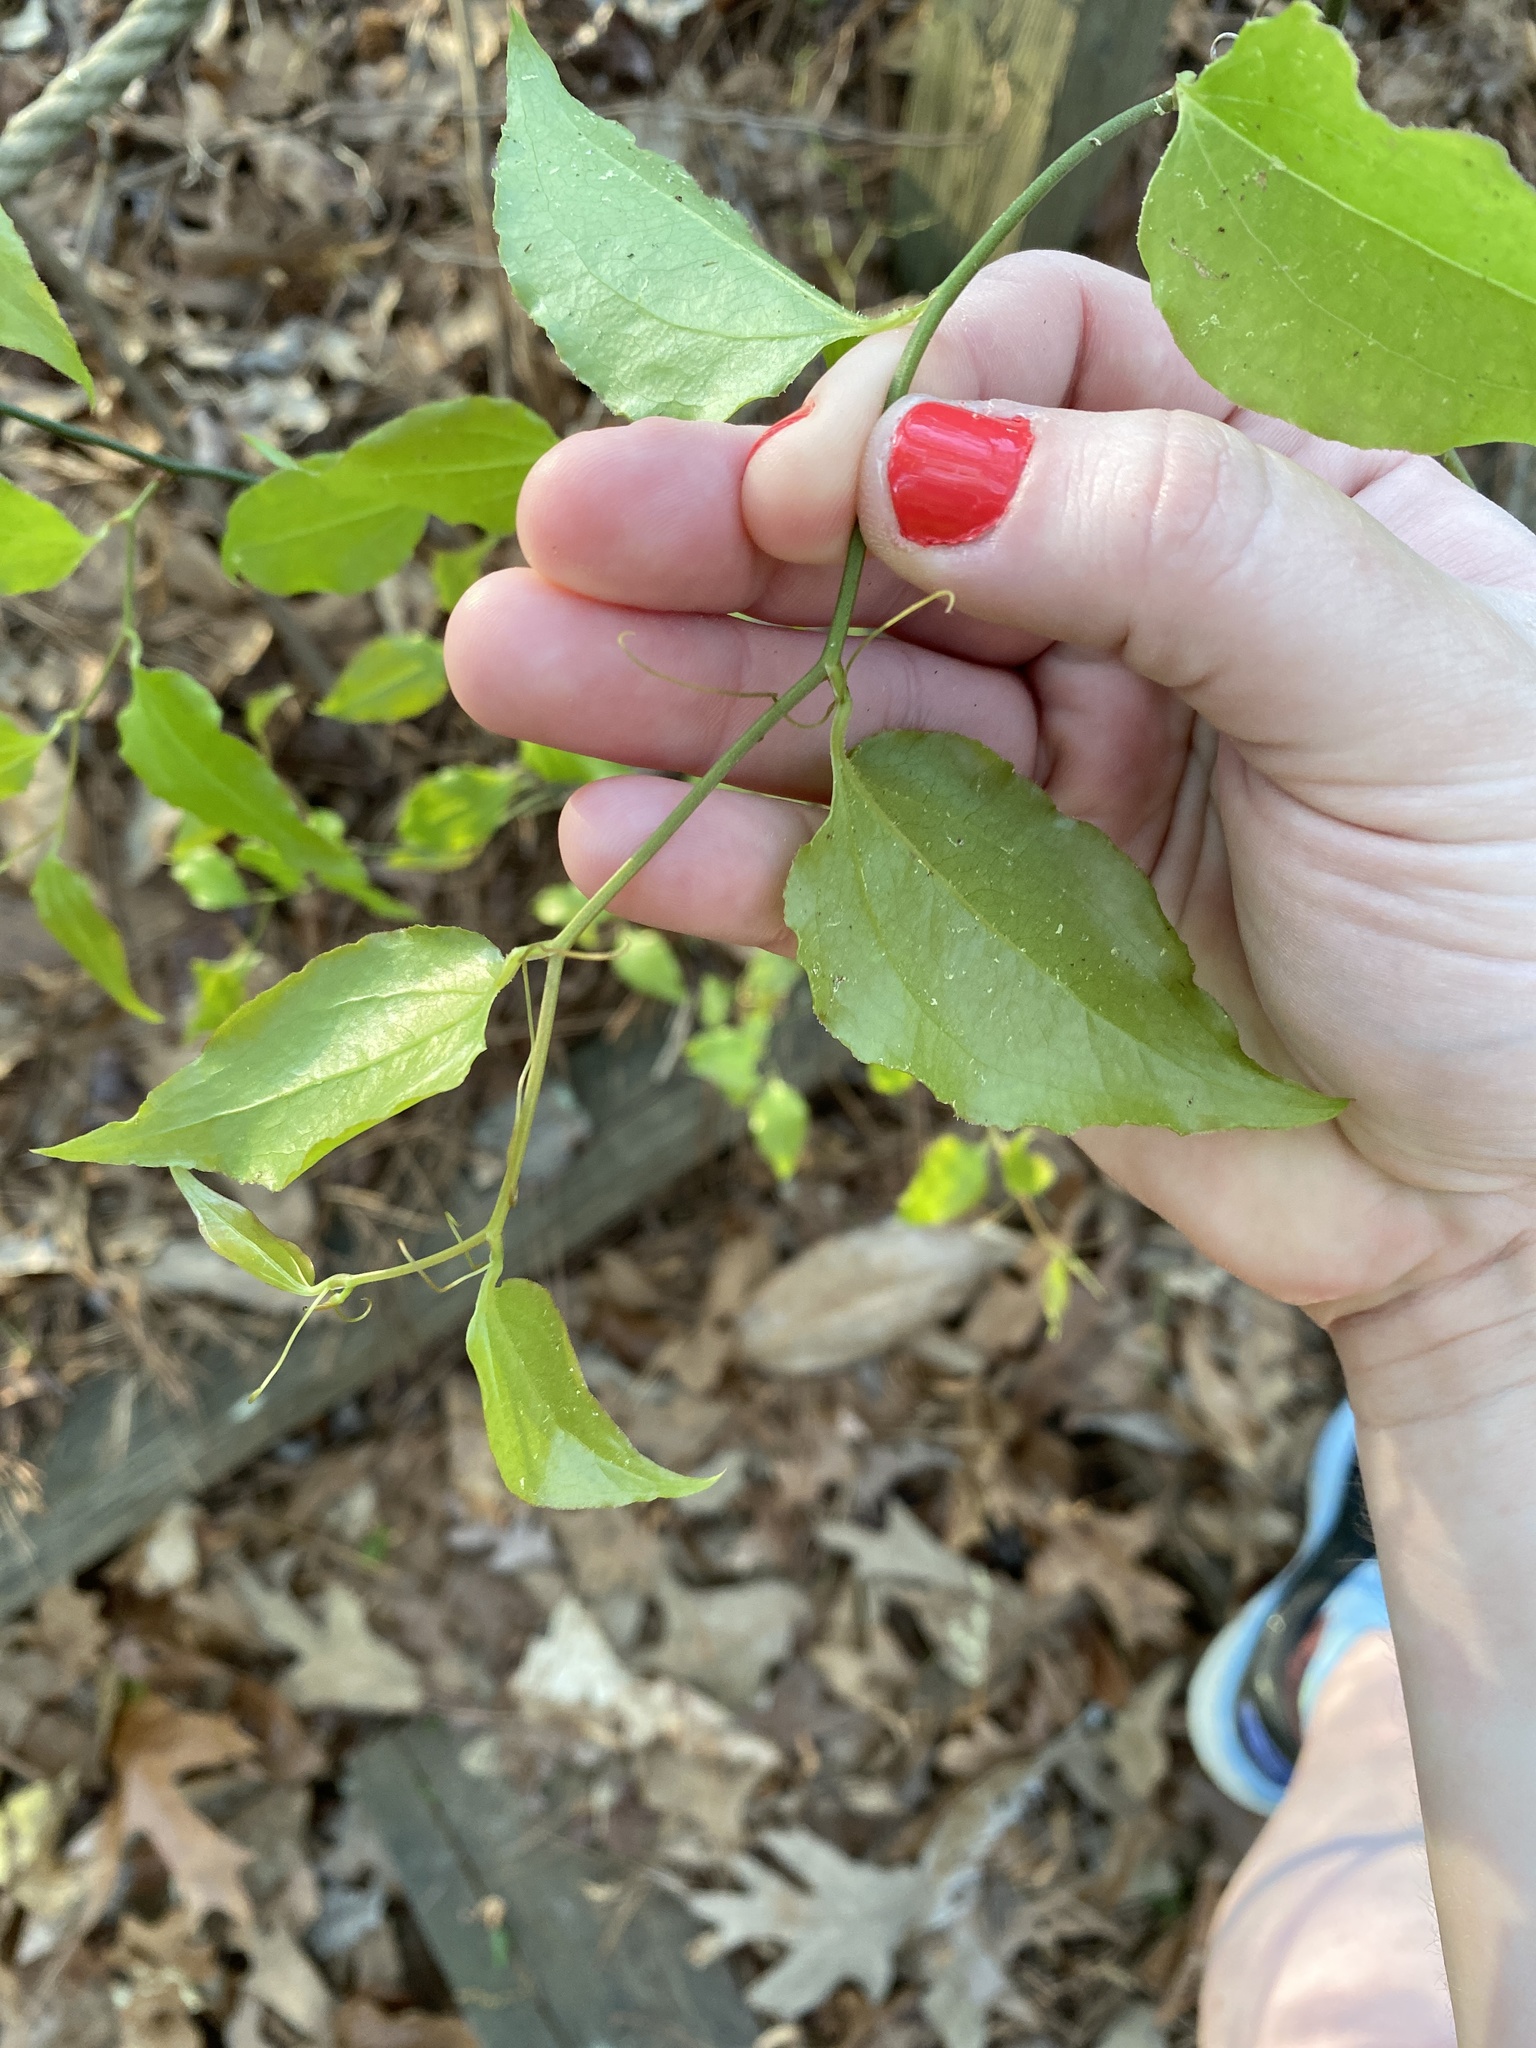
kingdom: Plantae
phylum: Tracheophyta
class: Liliopsida
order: Liliales
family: Smilacaceae
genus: Smilax
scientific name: Smilax rotundifolia
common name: Bullbriar
